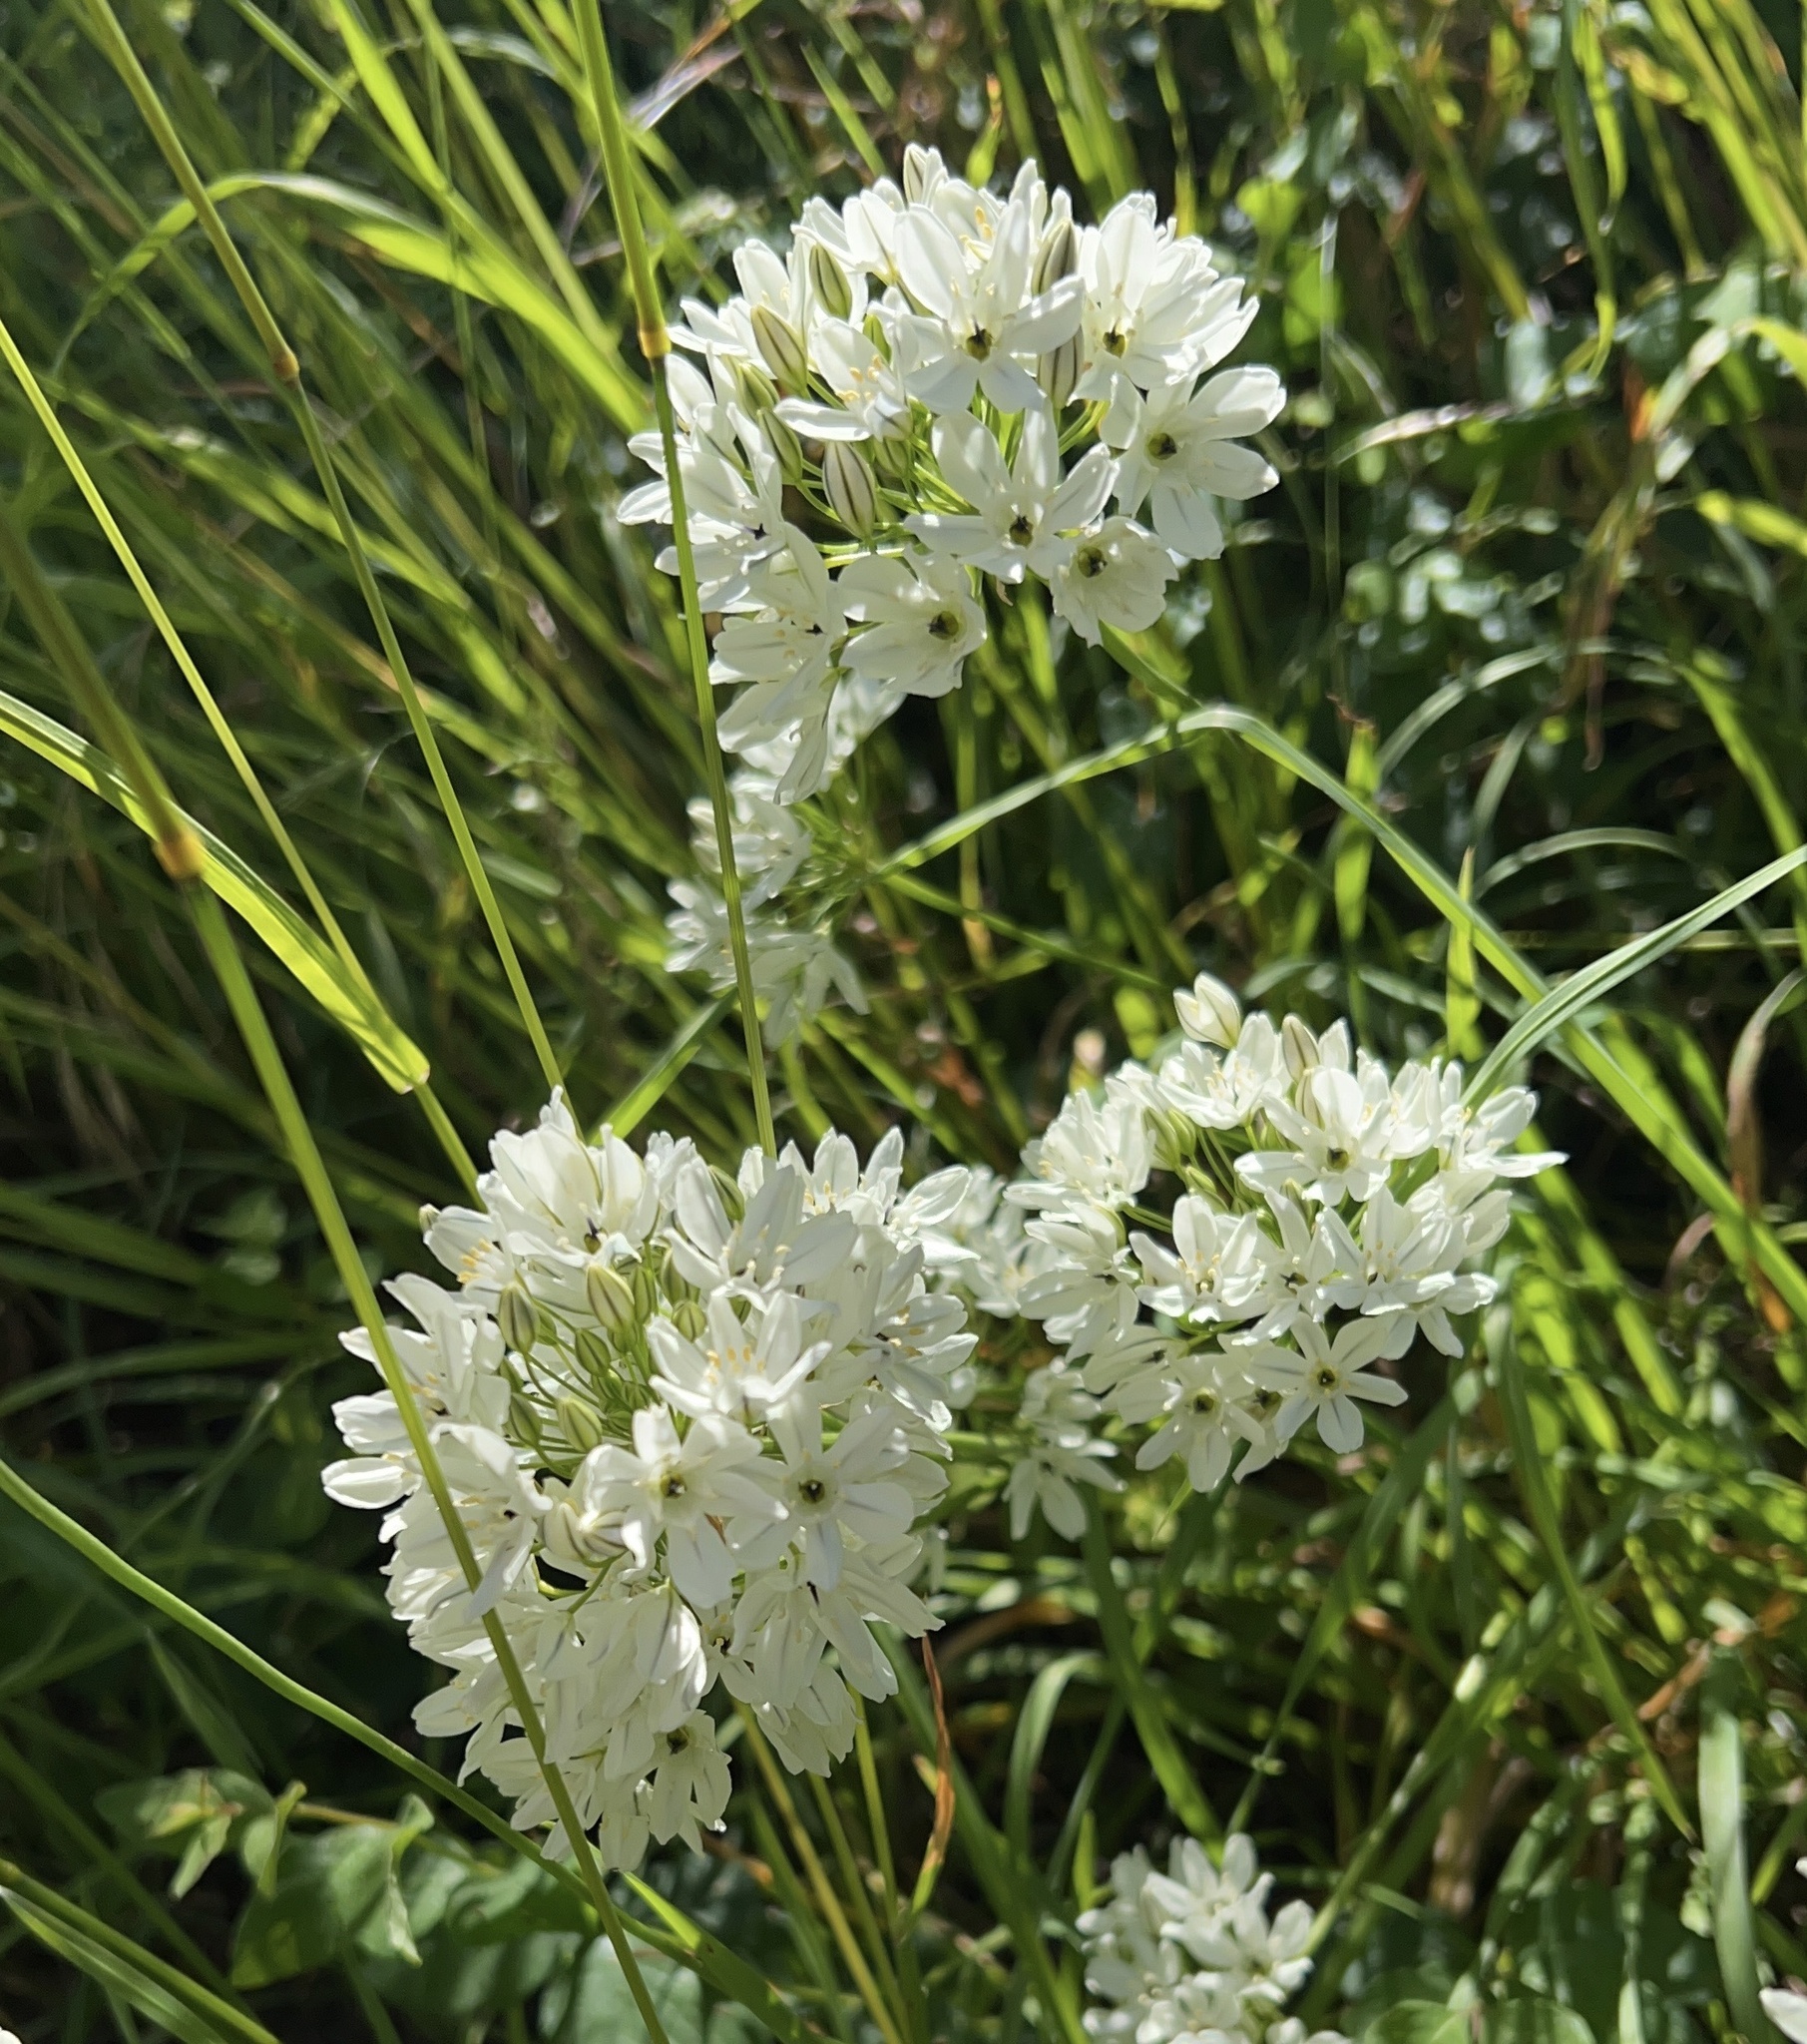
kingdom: Plantae
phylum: Tracheophyta
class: Liliopsida
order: Asparagales
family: Asparagaceae
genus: Triteleia
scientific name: Triteleia hyacinthina
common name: White brodiaea
